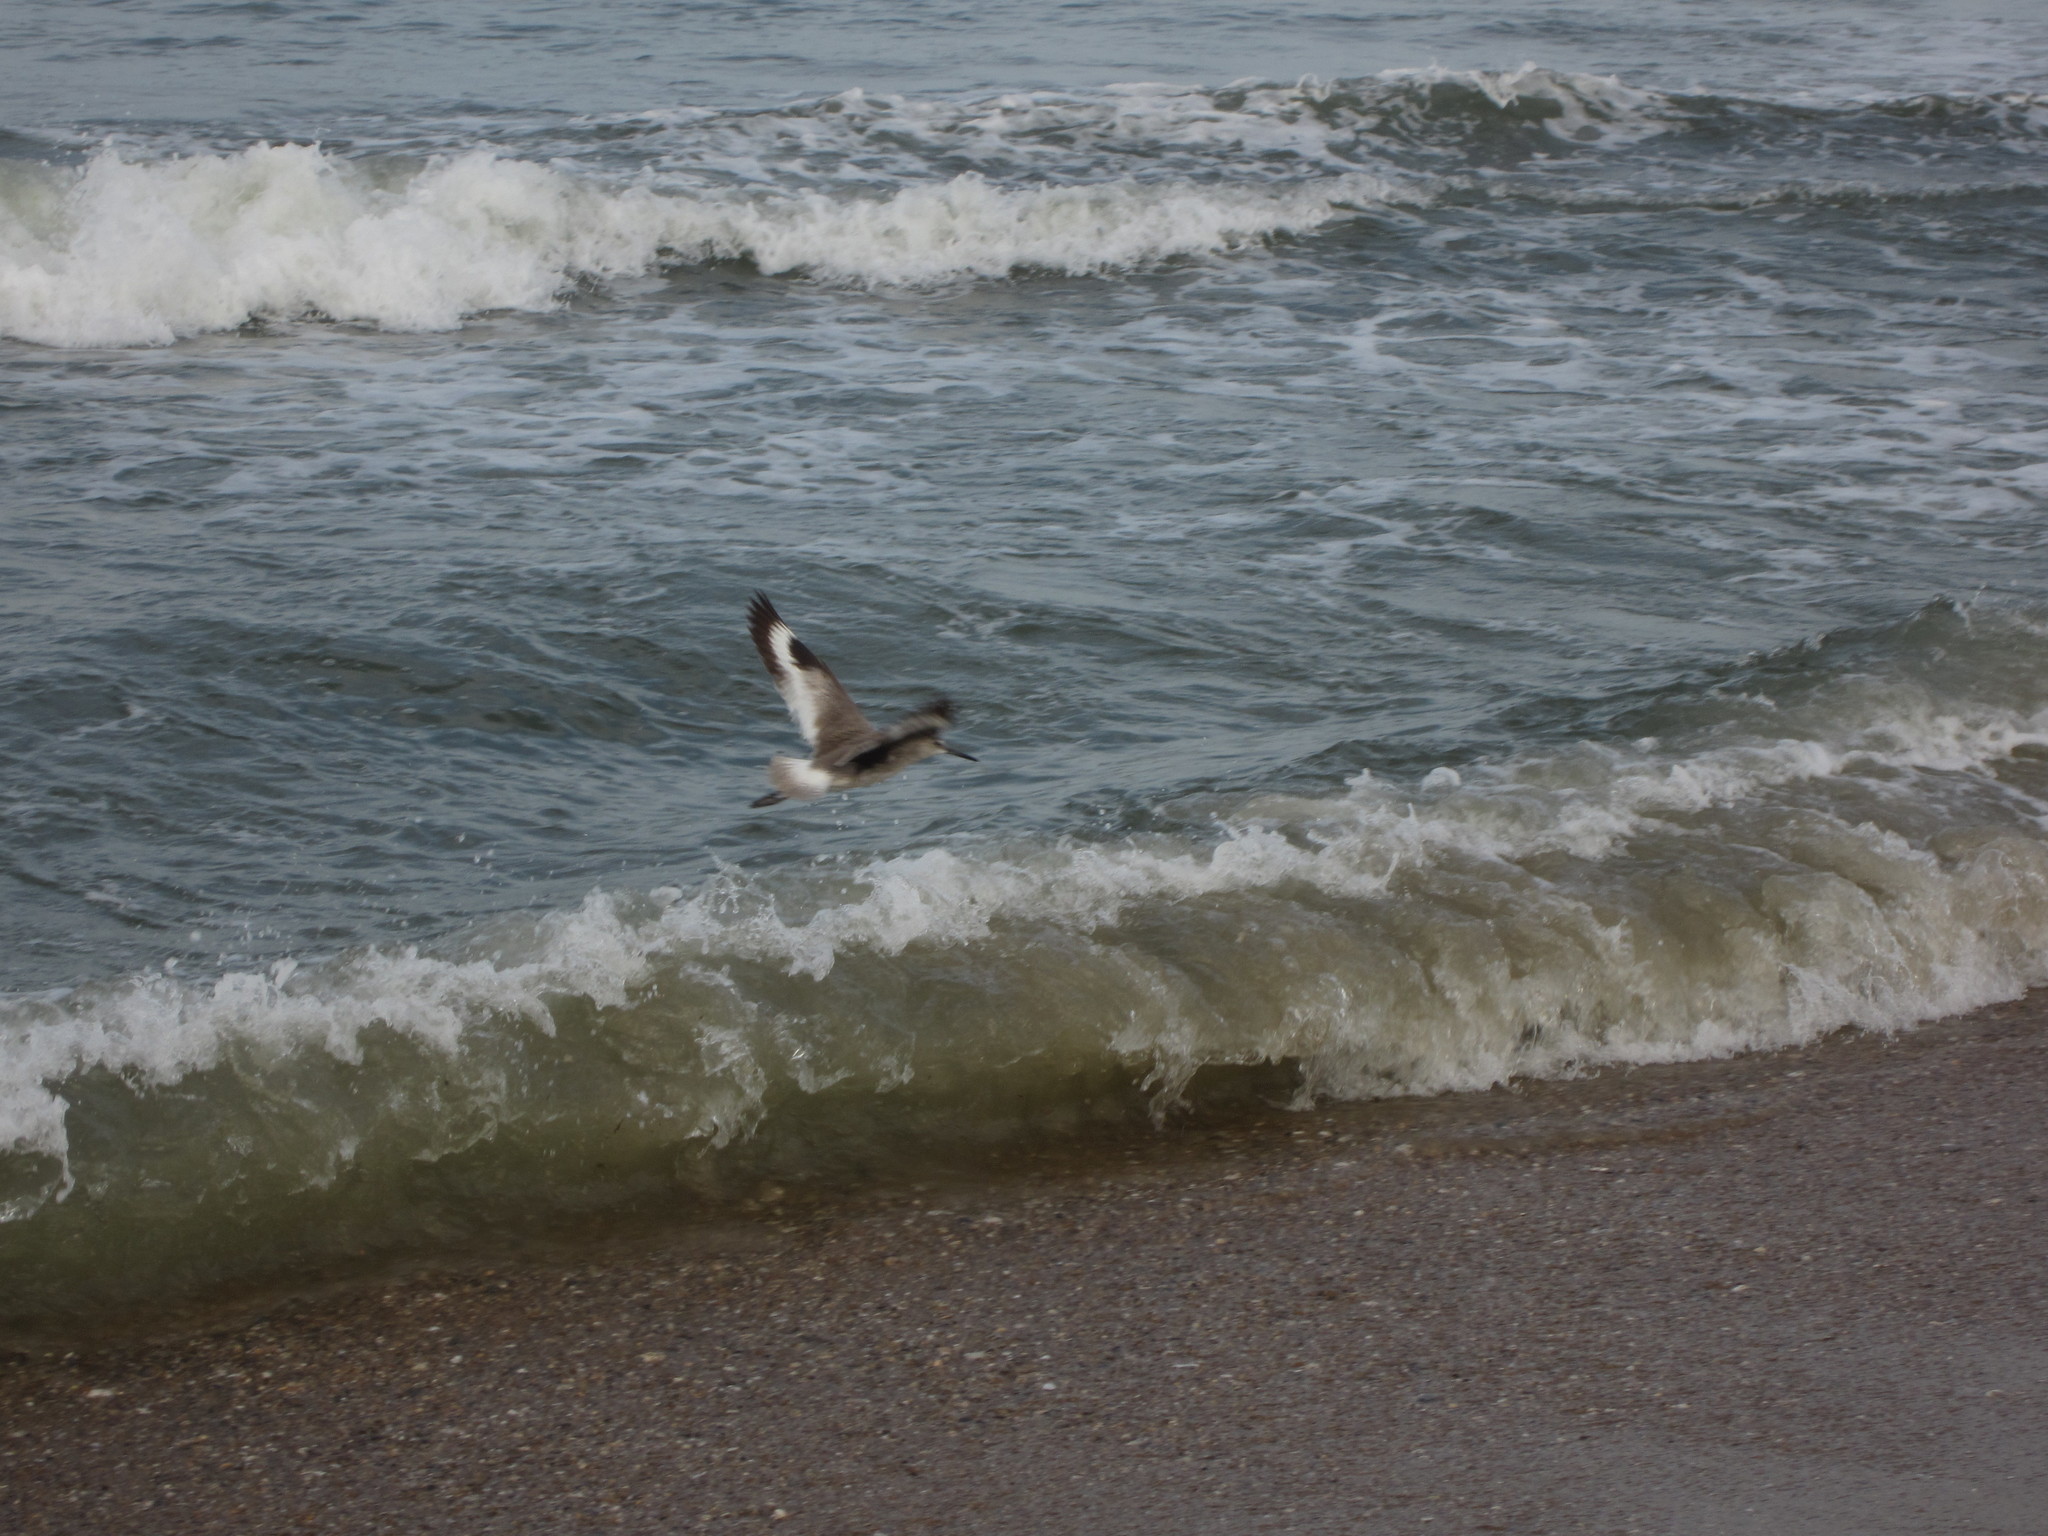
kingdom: Animalia
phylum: Chordata
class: Aves
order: Charadriiformes
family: Scolopacidae
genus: Tringa
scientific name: Tringa semipalmata
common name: Willet
